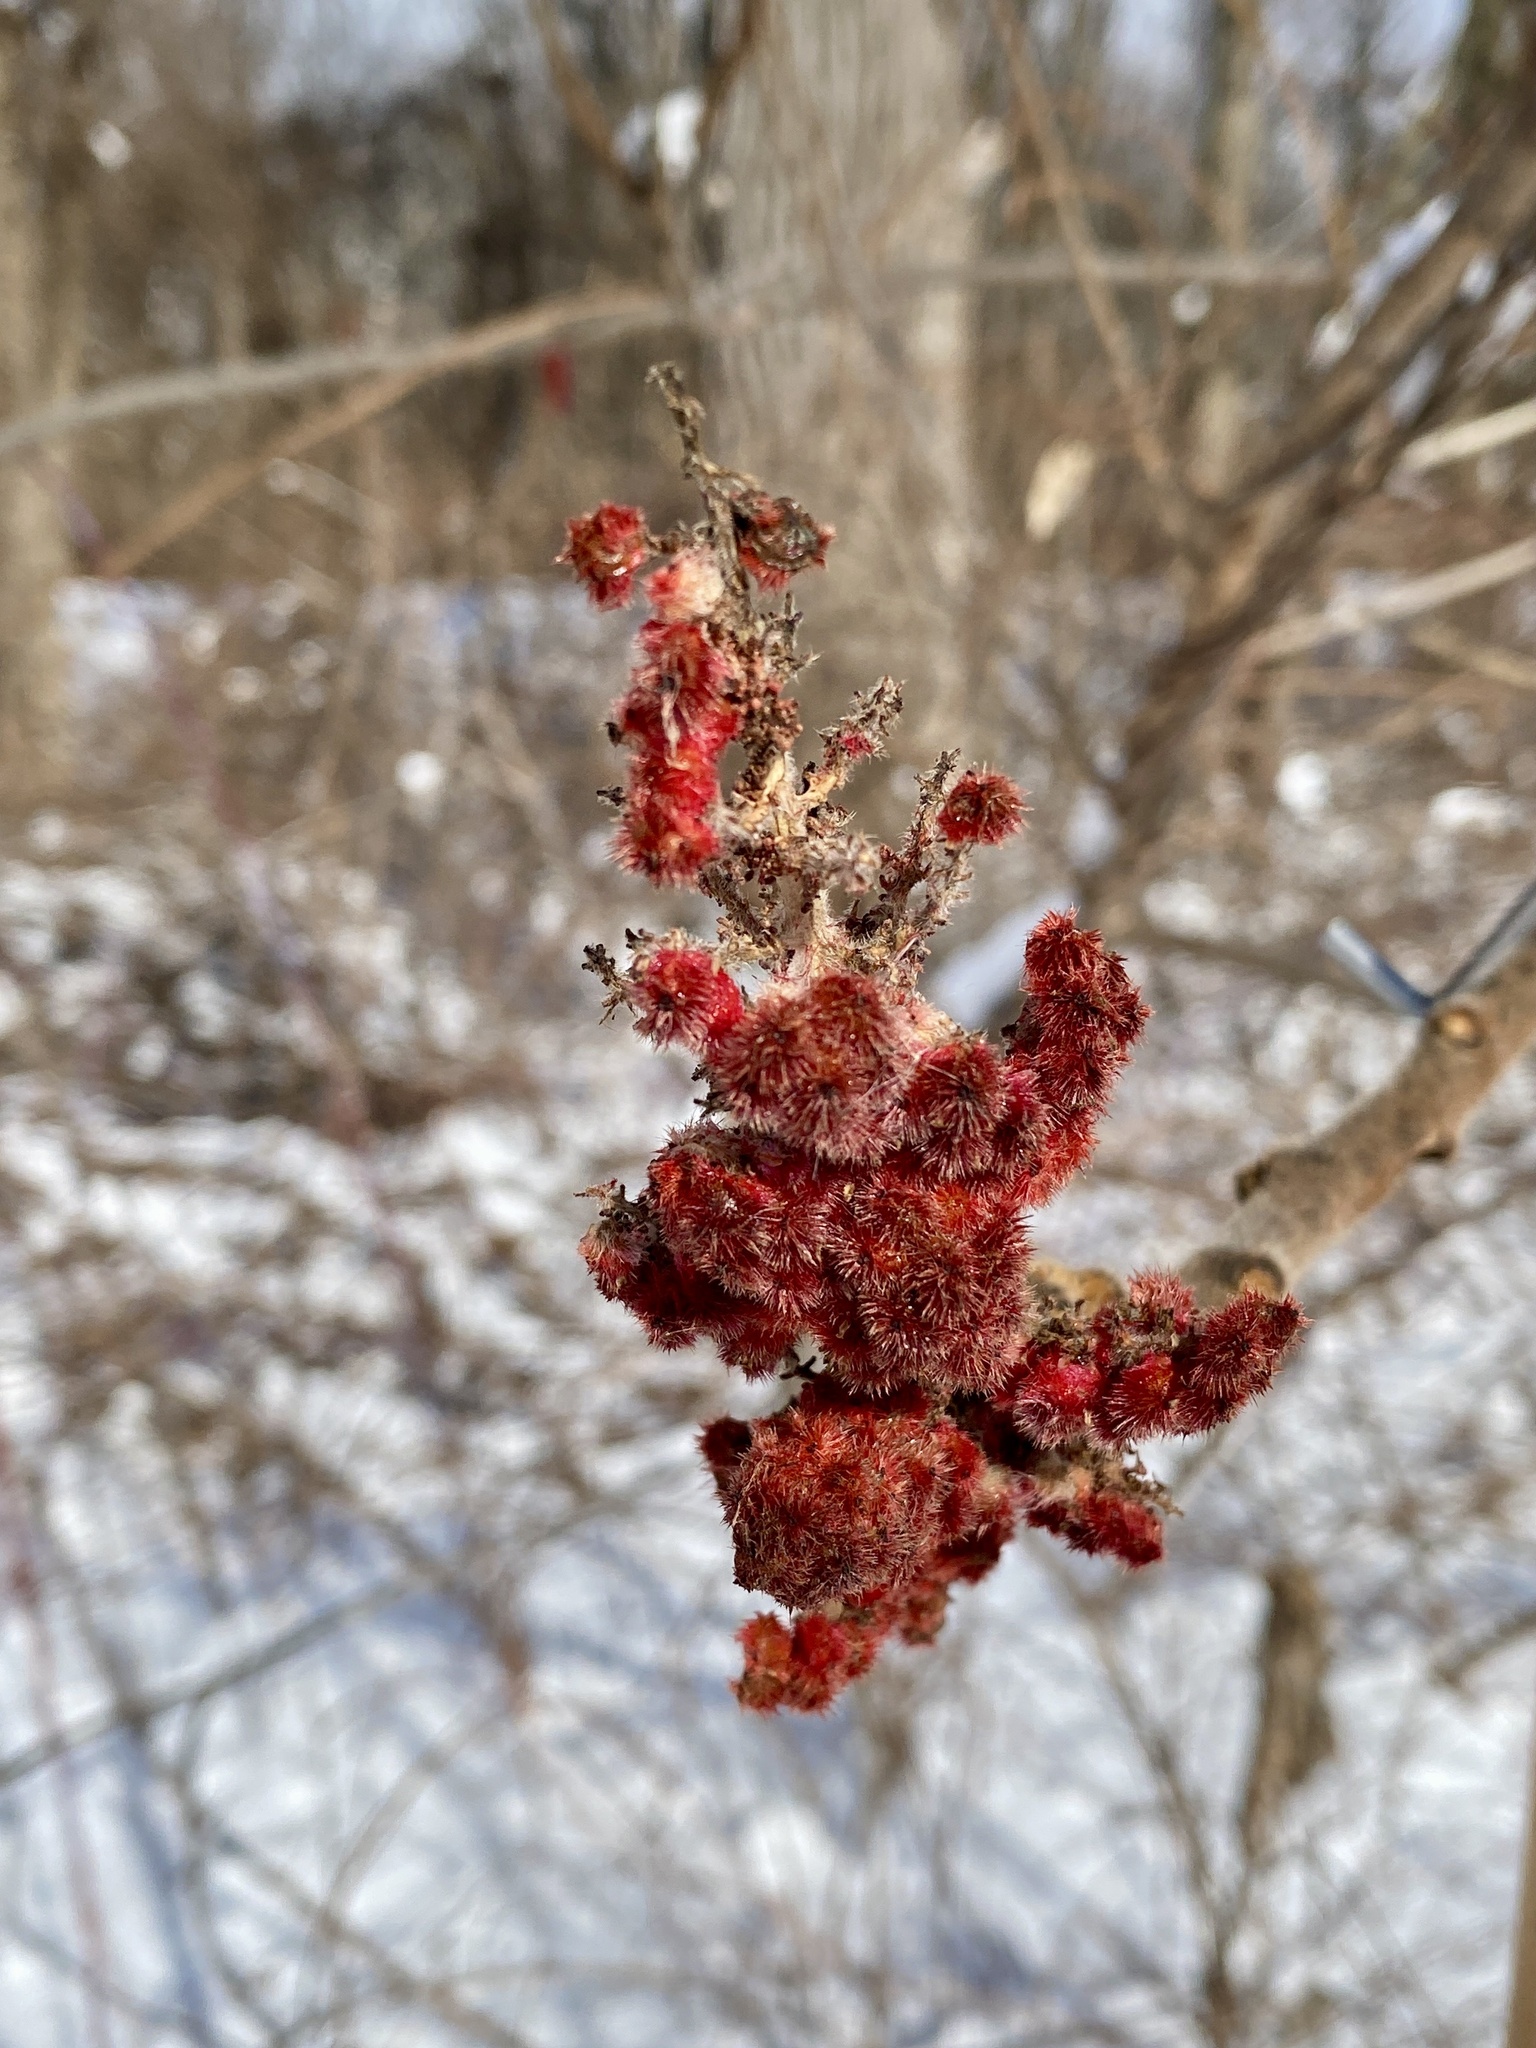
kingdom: Plantae
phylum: Tracheophyta
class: Magnoliopsida
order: Sapindales
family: Anacardiaceae
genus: Rhus
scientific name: Rhus typhina
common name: Staghorn sumac
